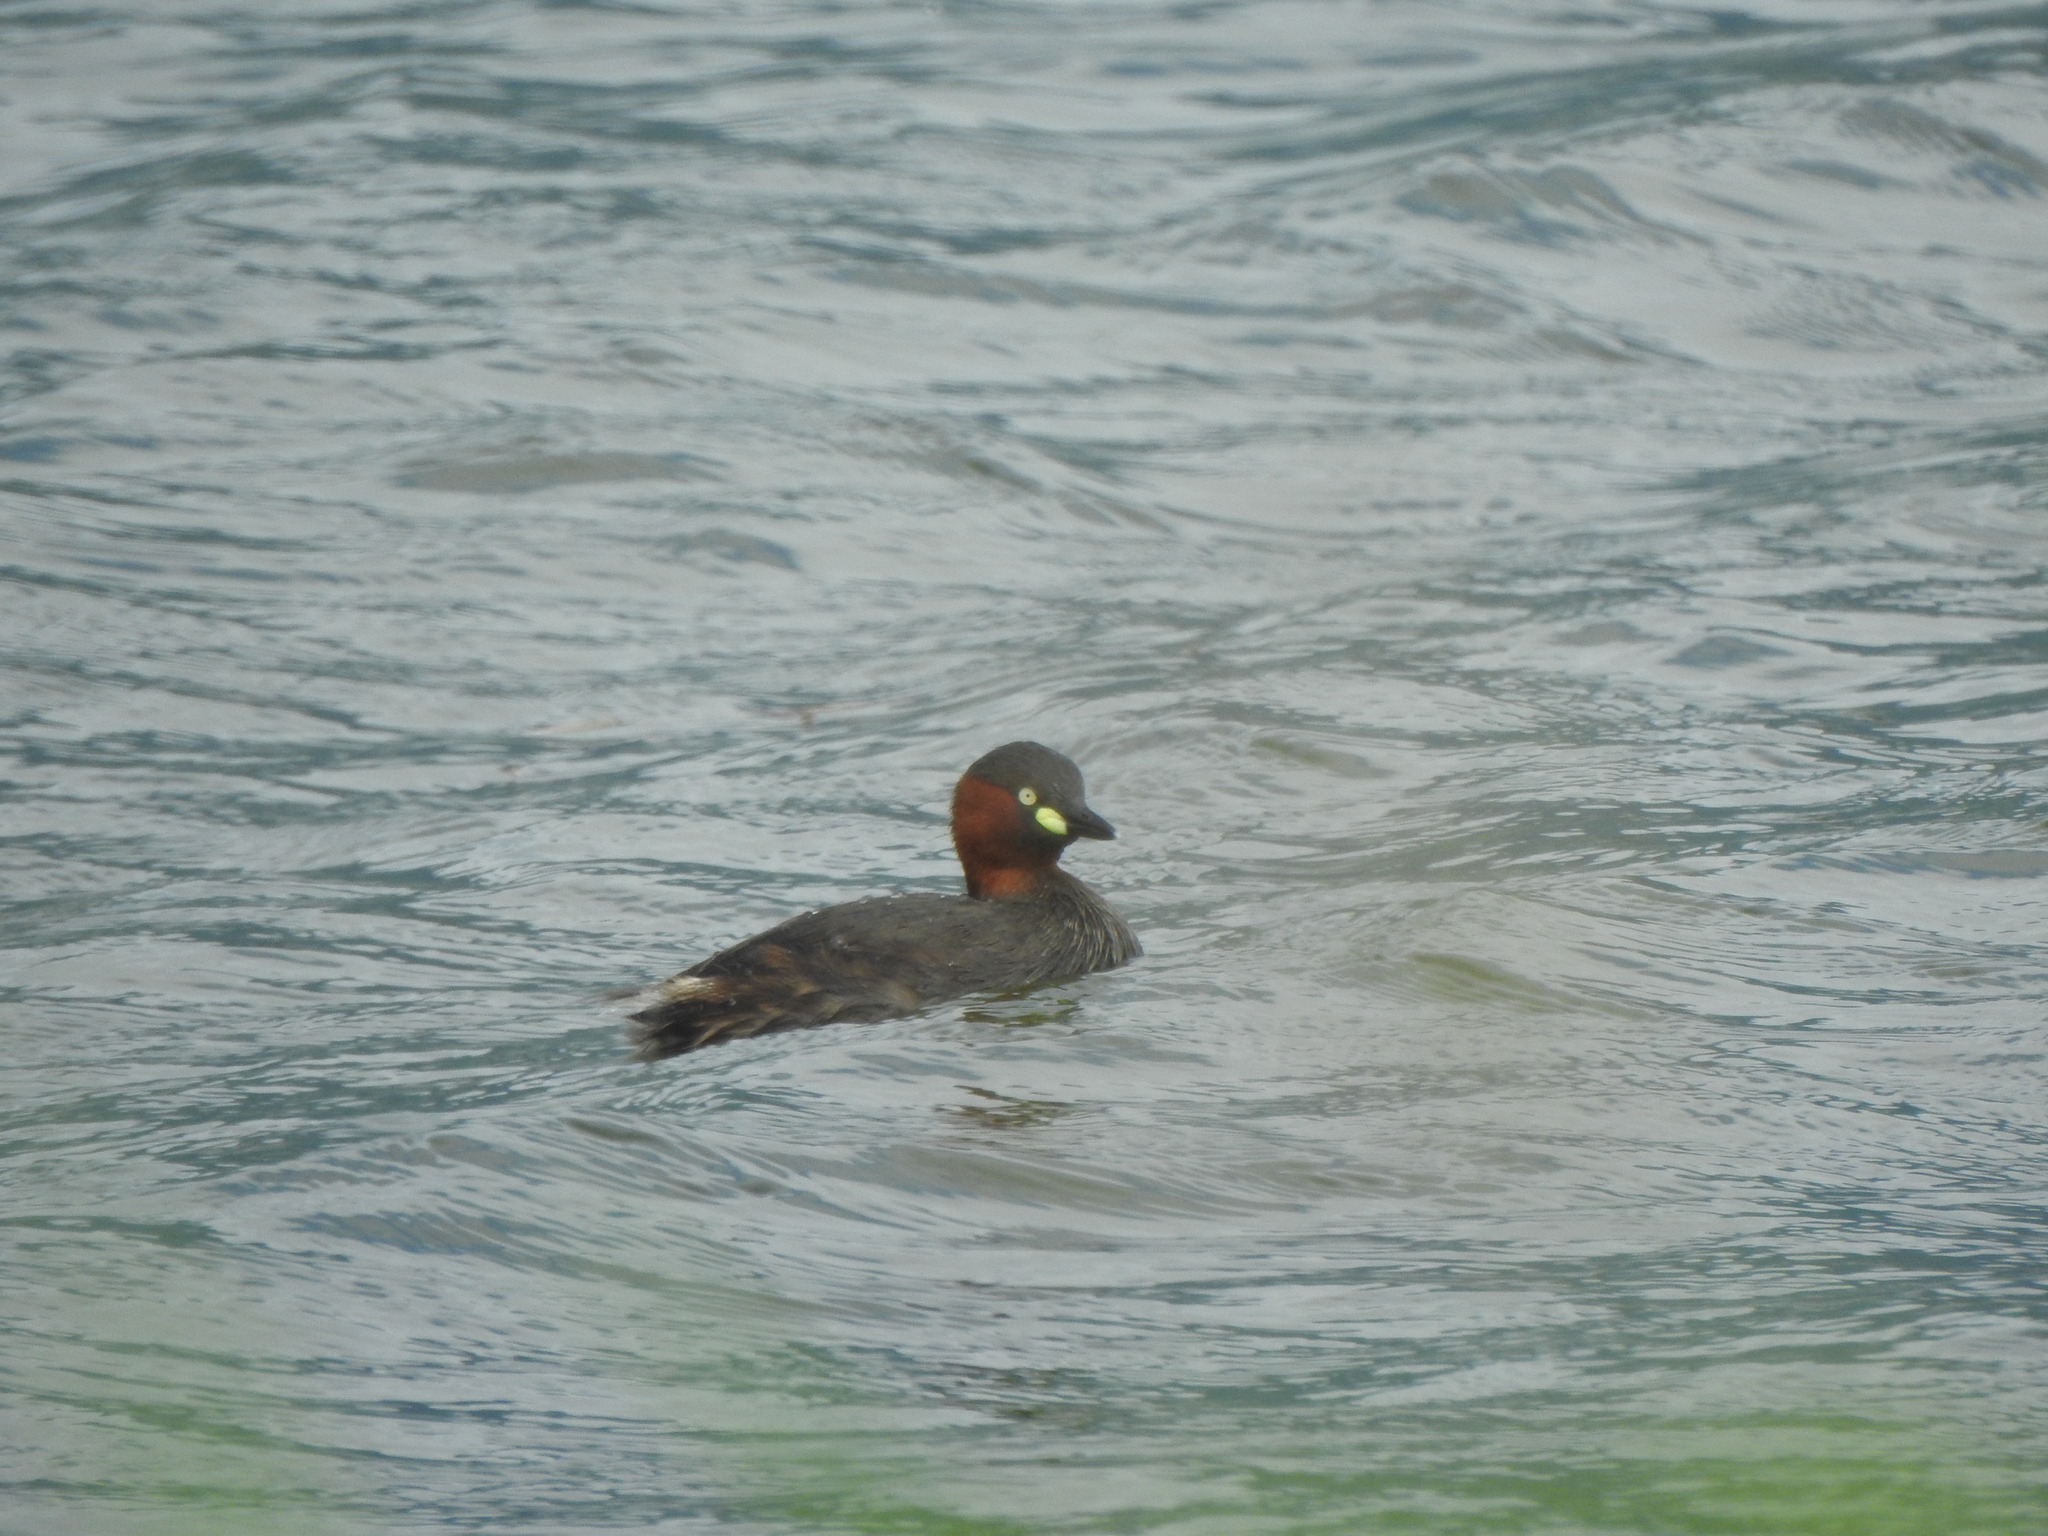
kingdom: Animalia
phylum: Chordata
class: Aves
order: Podicipediformes
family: Podicipedidae
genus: Tachybaptus
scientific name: Tachybaptus ruficollis
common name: Little grebe
